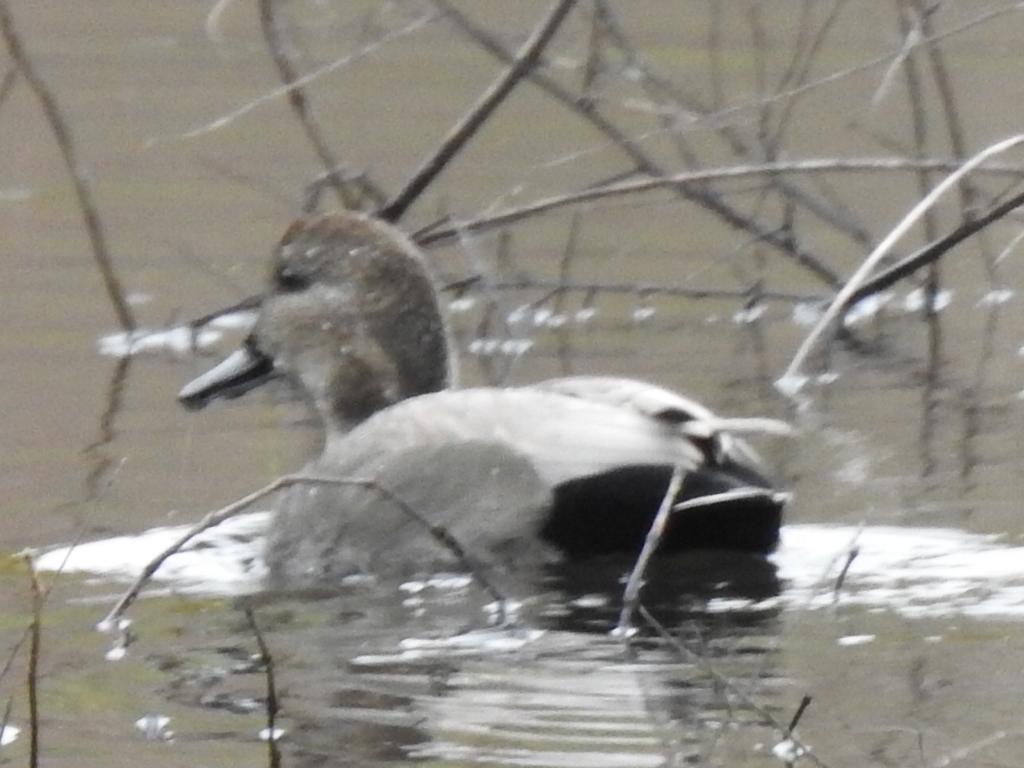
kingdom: Animalia
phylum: Chordata
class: Aves
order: Anseriformes
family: Anatidae
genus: Mareca
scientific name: Mareca strepera
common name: Gadwall
